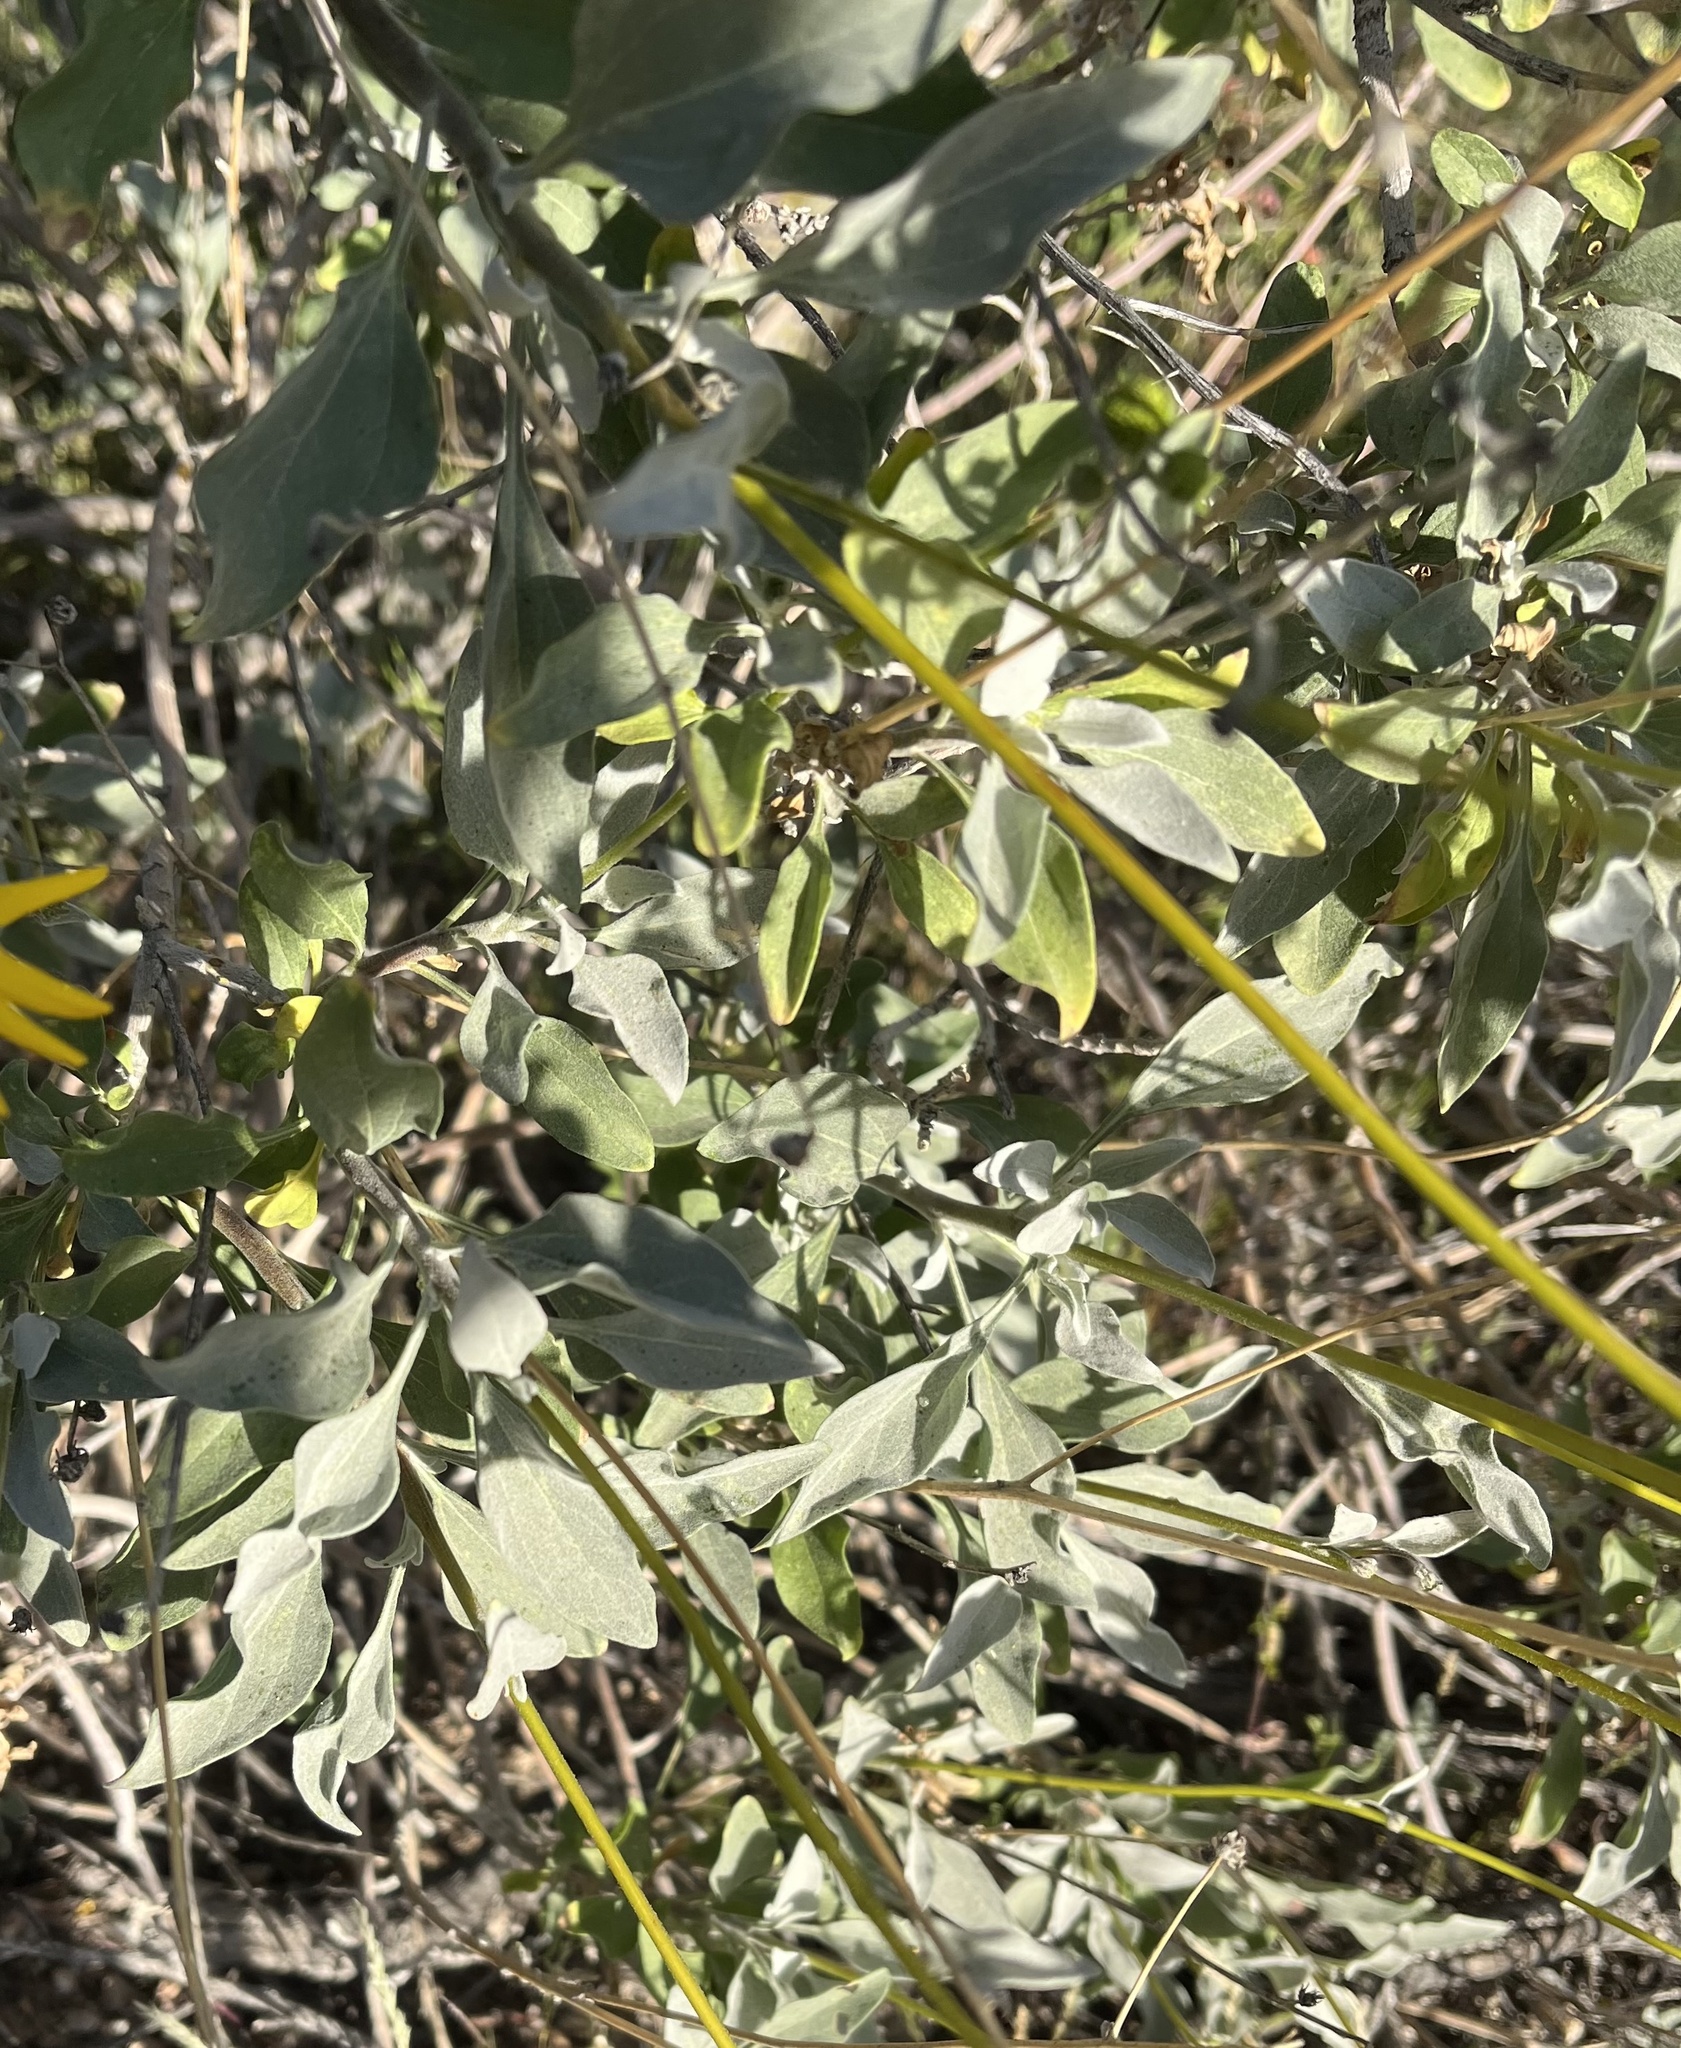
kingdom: Plantae
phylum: Tracheophyta
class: Magnoliopsida
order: Asterales
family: Asteraceae
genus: Encelia
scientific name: Encelia farinosa
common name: Brittlebush
